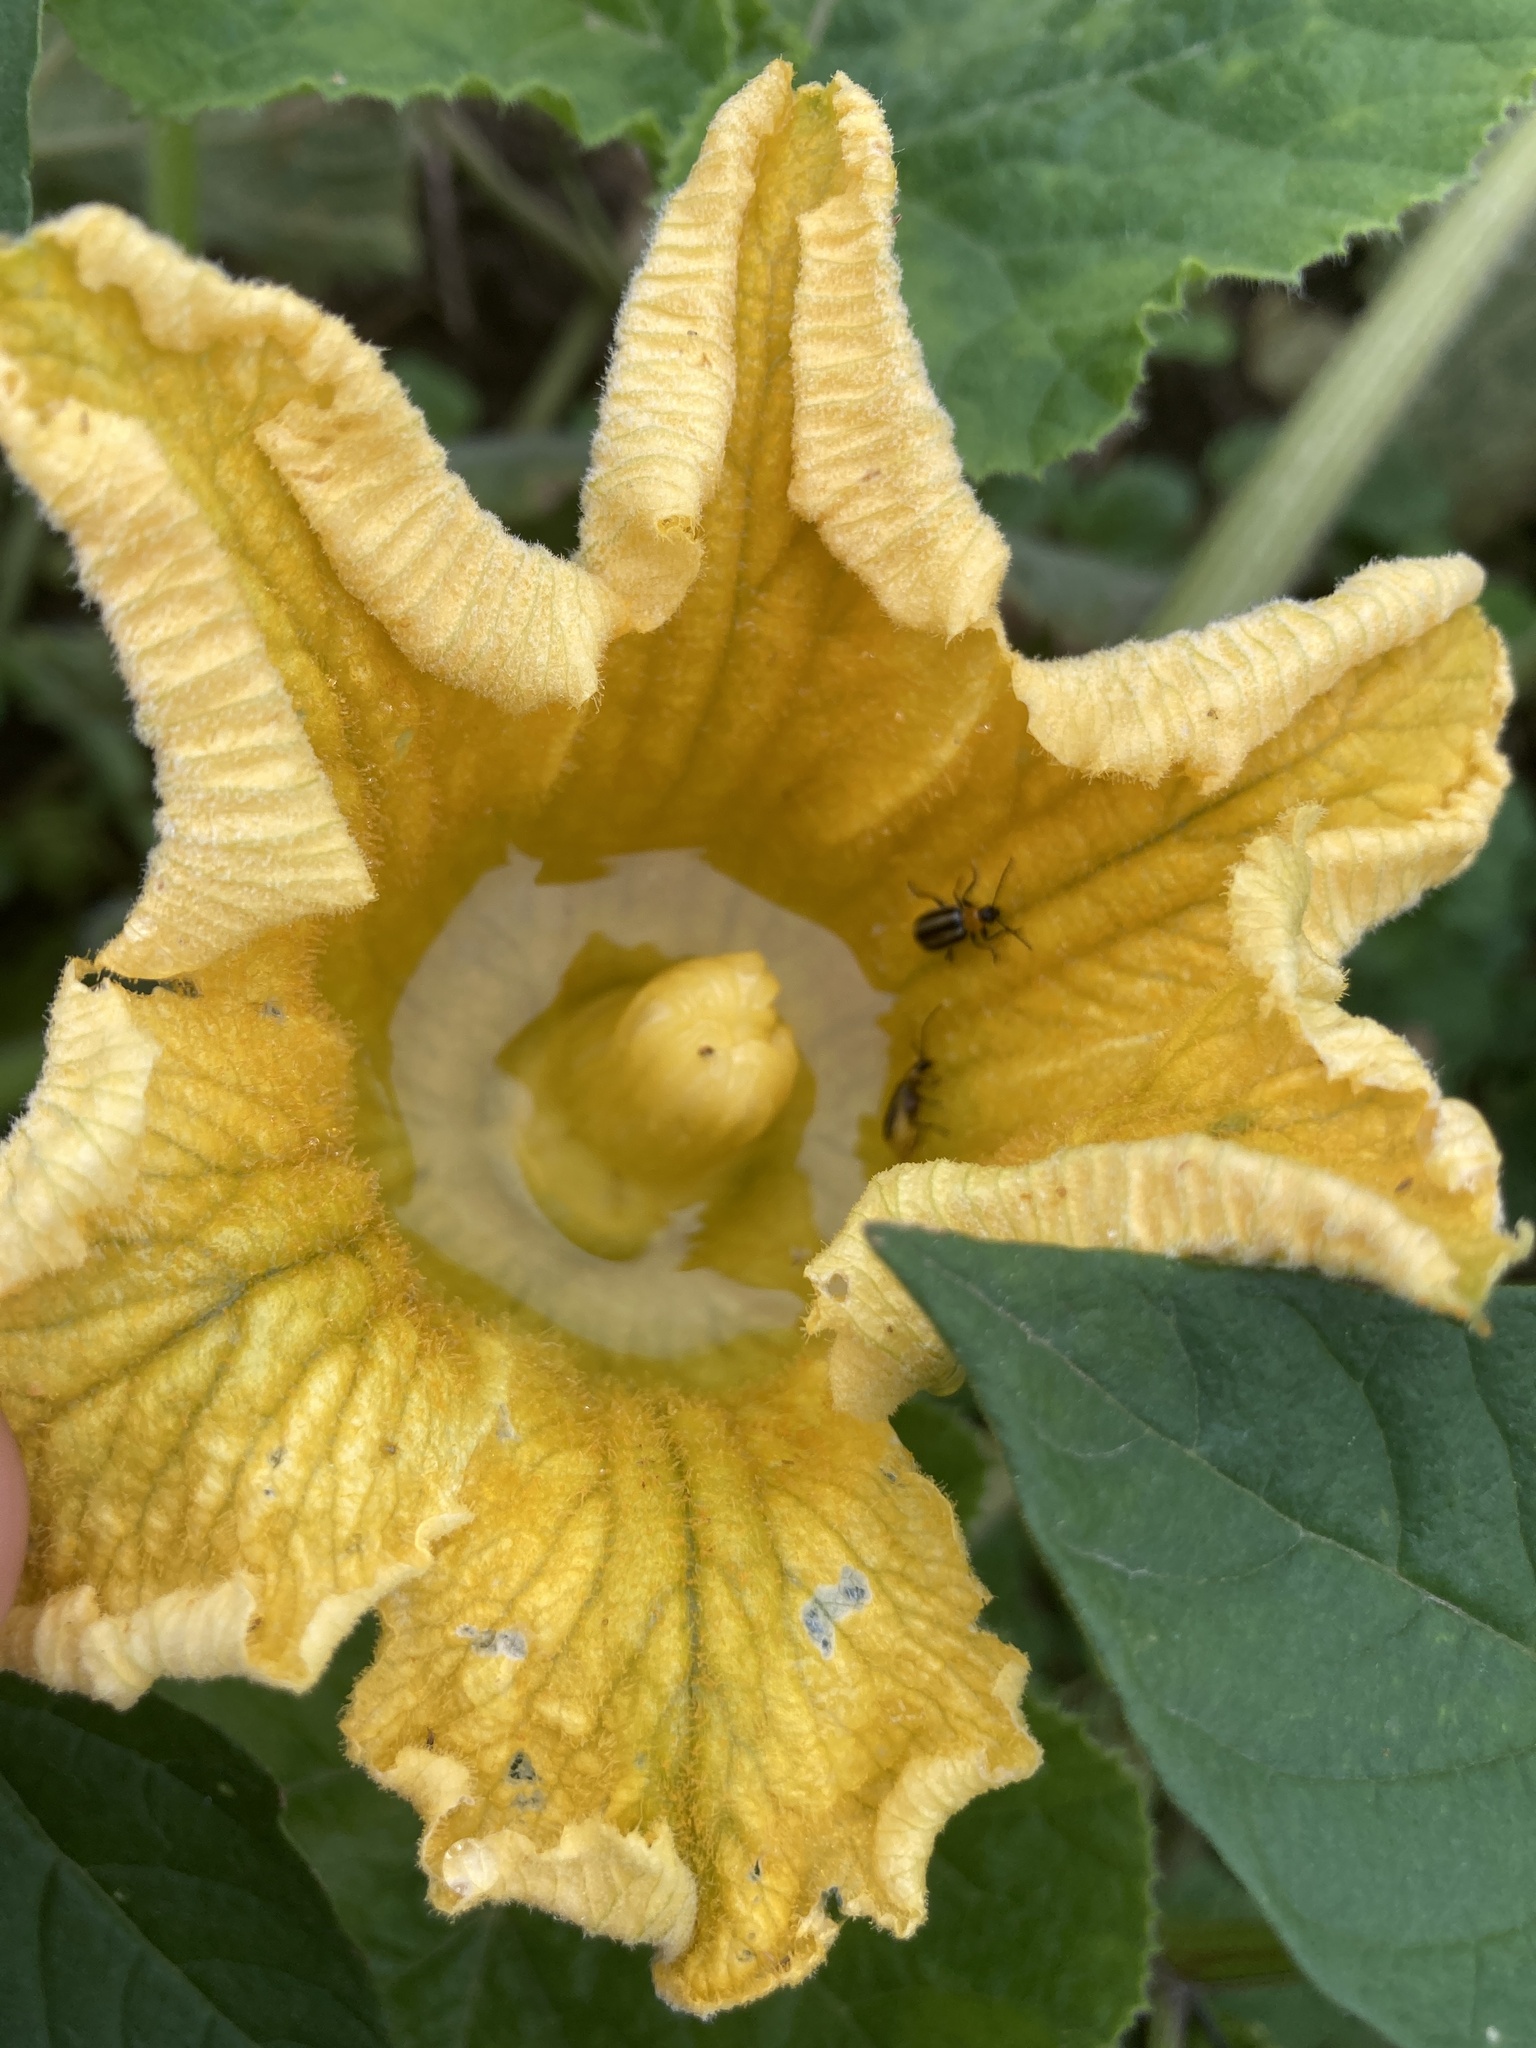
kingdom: Animalia
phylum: Arthropoda
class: Insecta
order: Coleoptera
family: Chrysomelidae
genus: Acalymma
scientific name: Acalymma trivittatum
